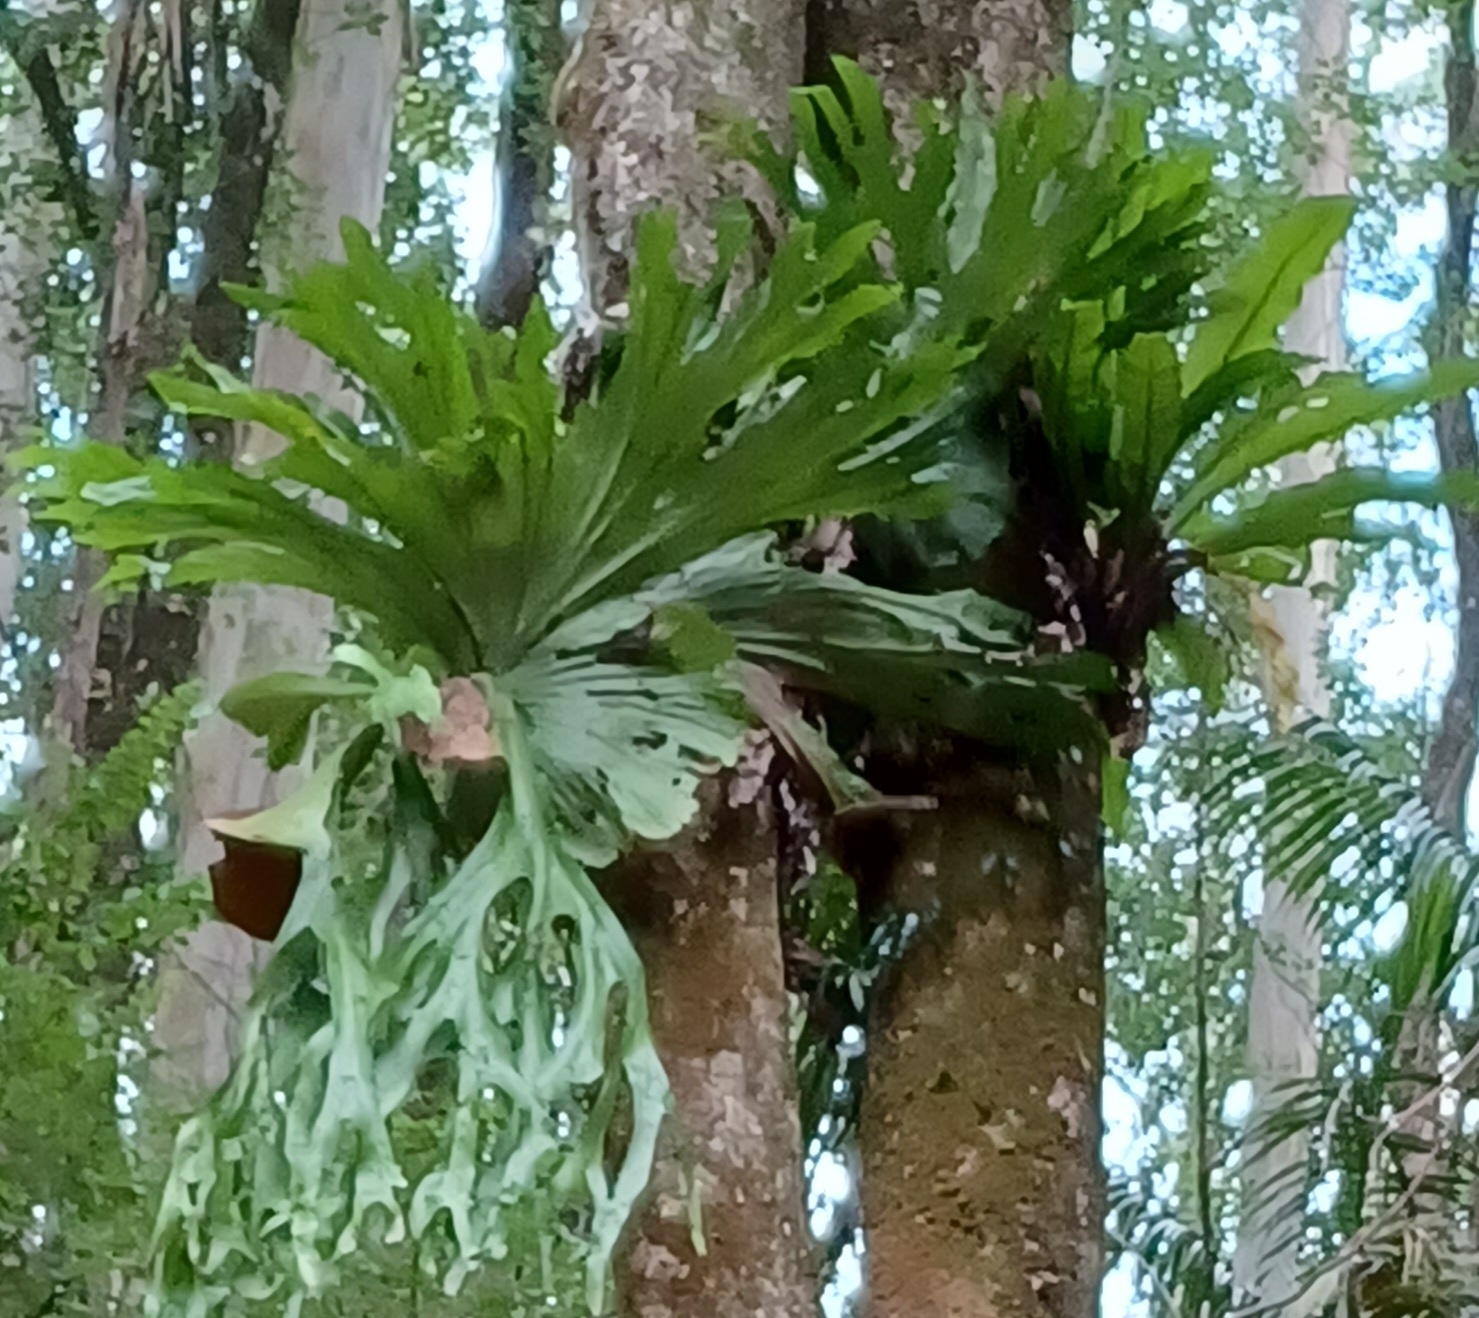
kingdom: Plantae
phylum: Tracheophyta
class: Polypodiopsida
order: Polypodiales
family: Polypodiaceae
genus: Platycerium
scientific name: Platycerium superbum
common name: Staghorn fern
